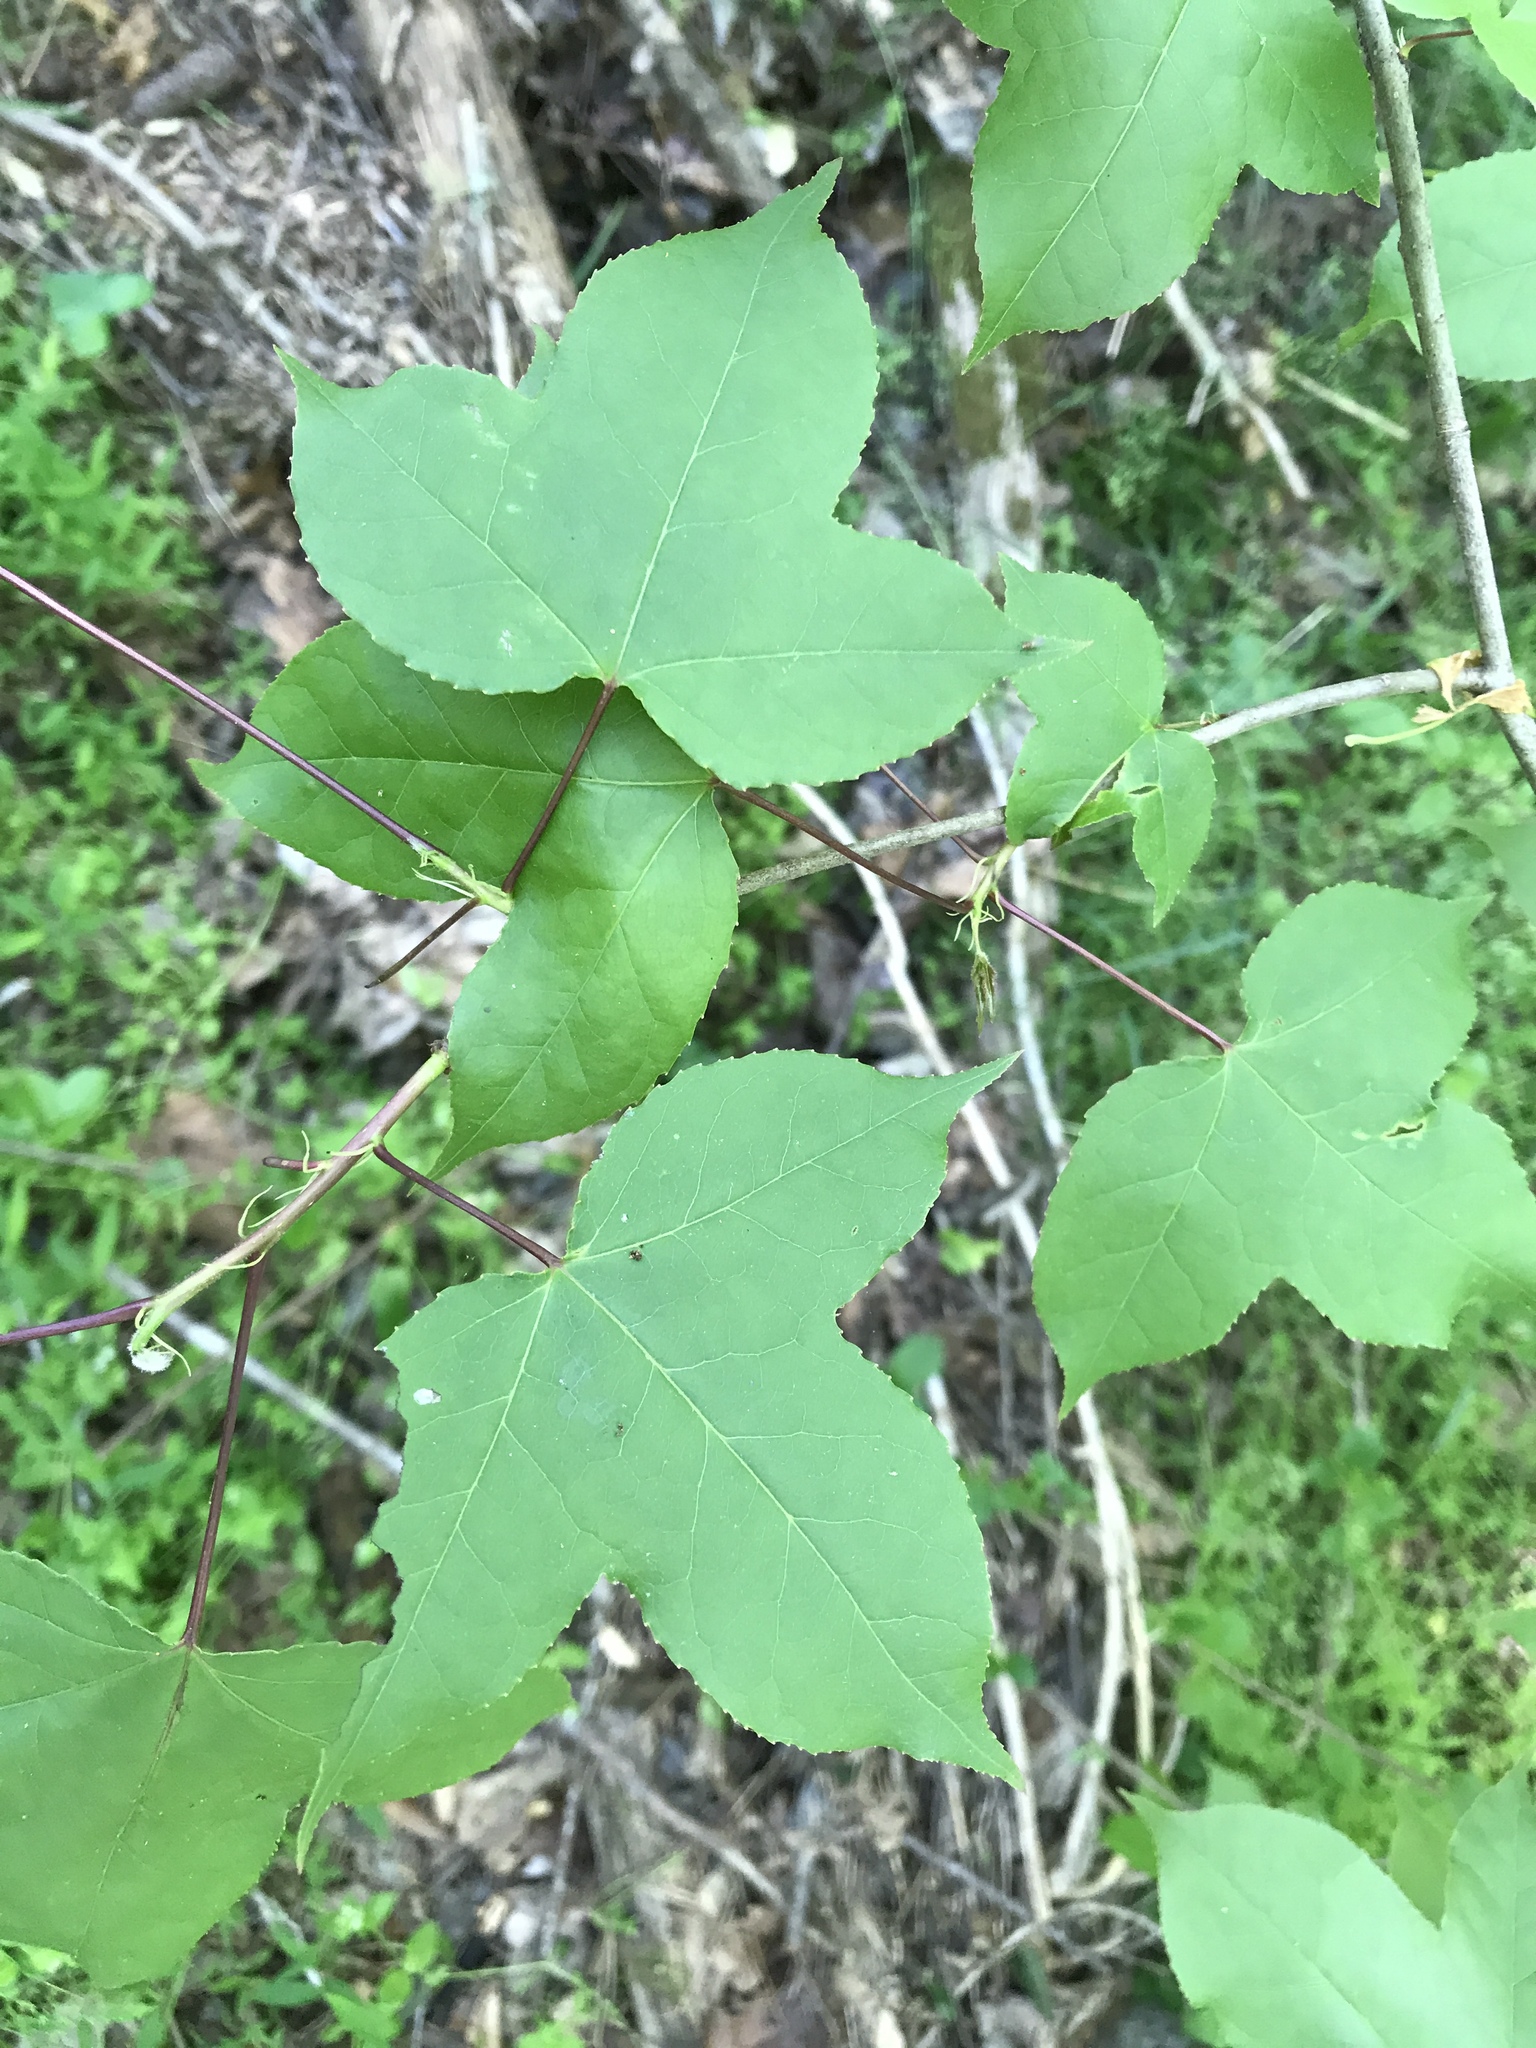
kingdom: Plantae
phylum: Tracheophyta
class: Magnoliopsida
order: Saxifragales
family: Altingiaceae
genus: Liquidambar
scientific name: Liquidambar formosana
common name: Chinese sweet gum
